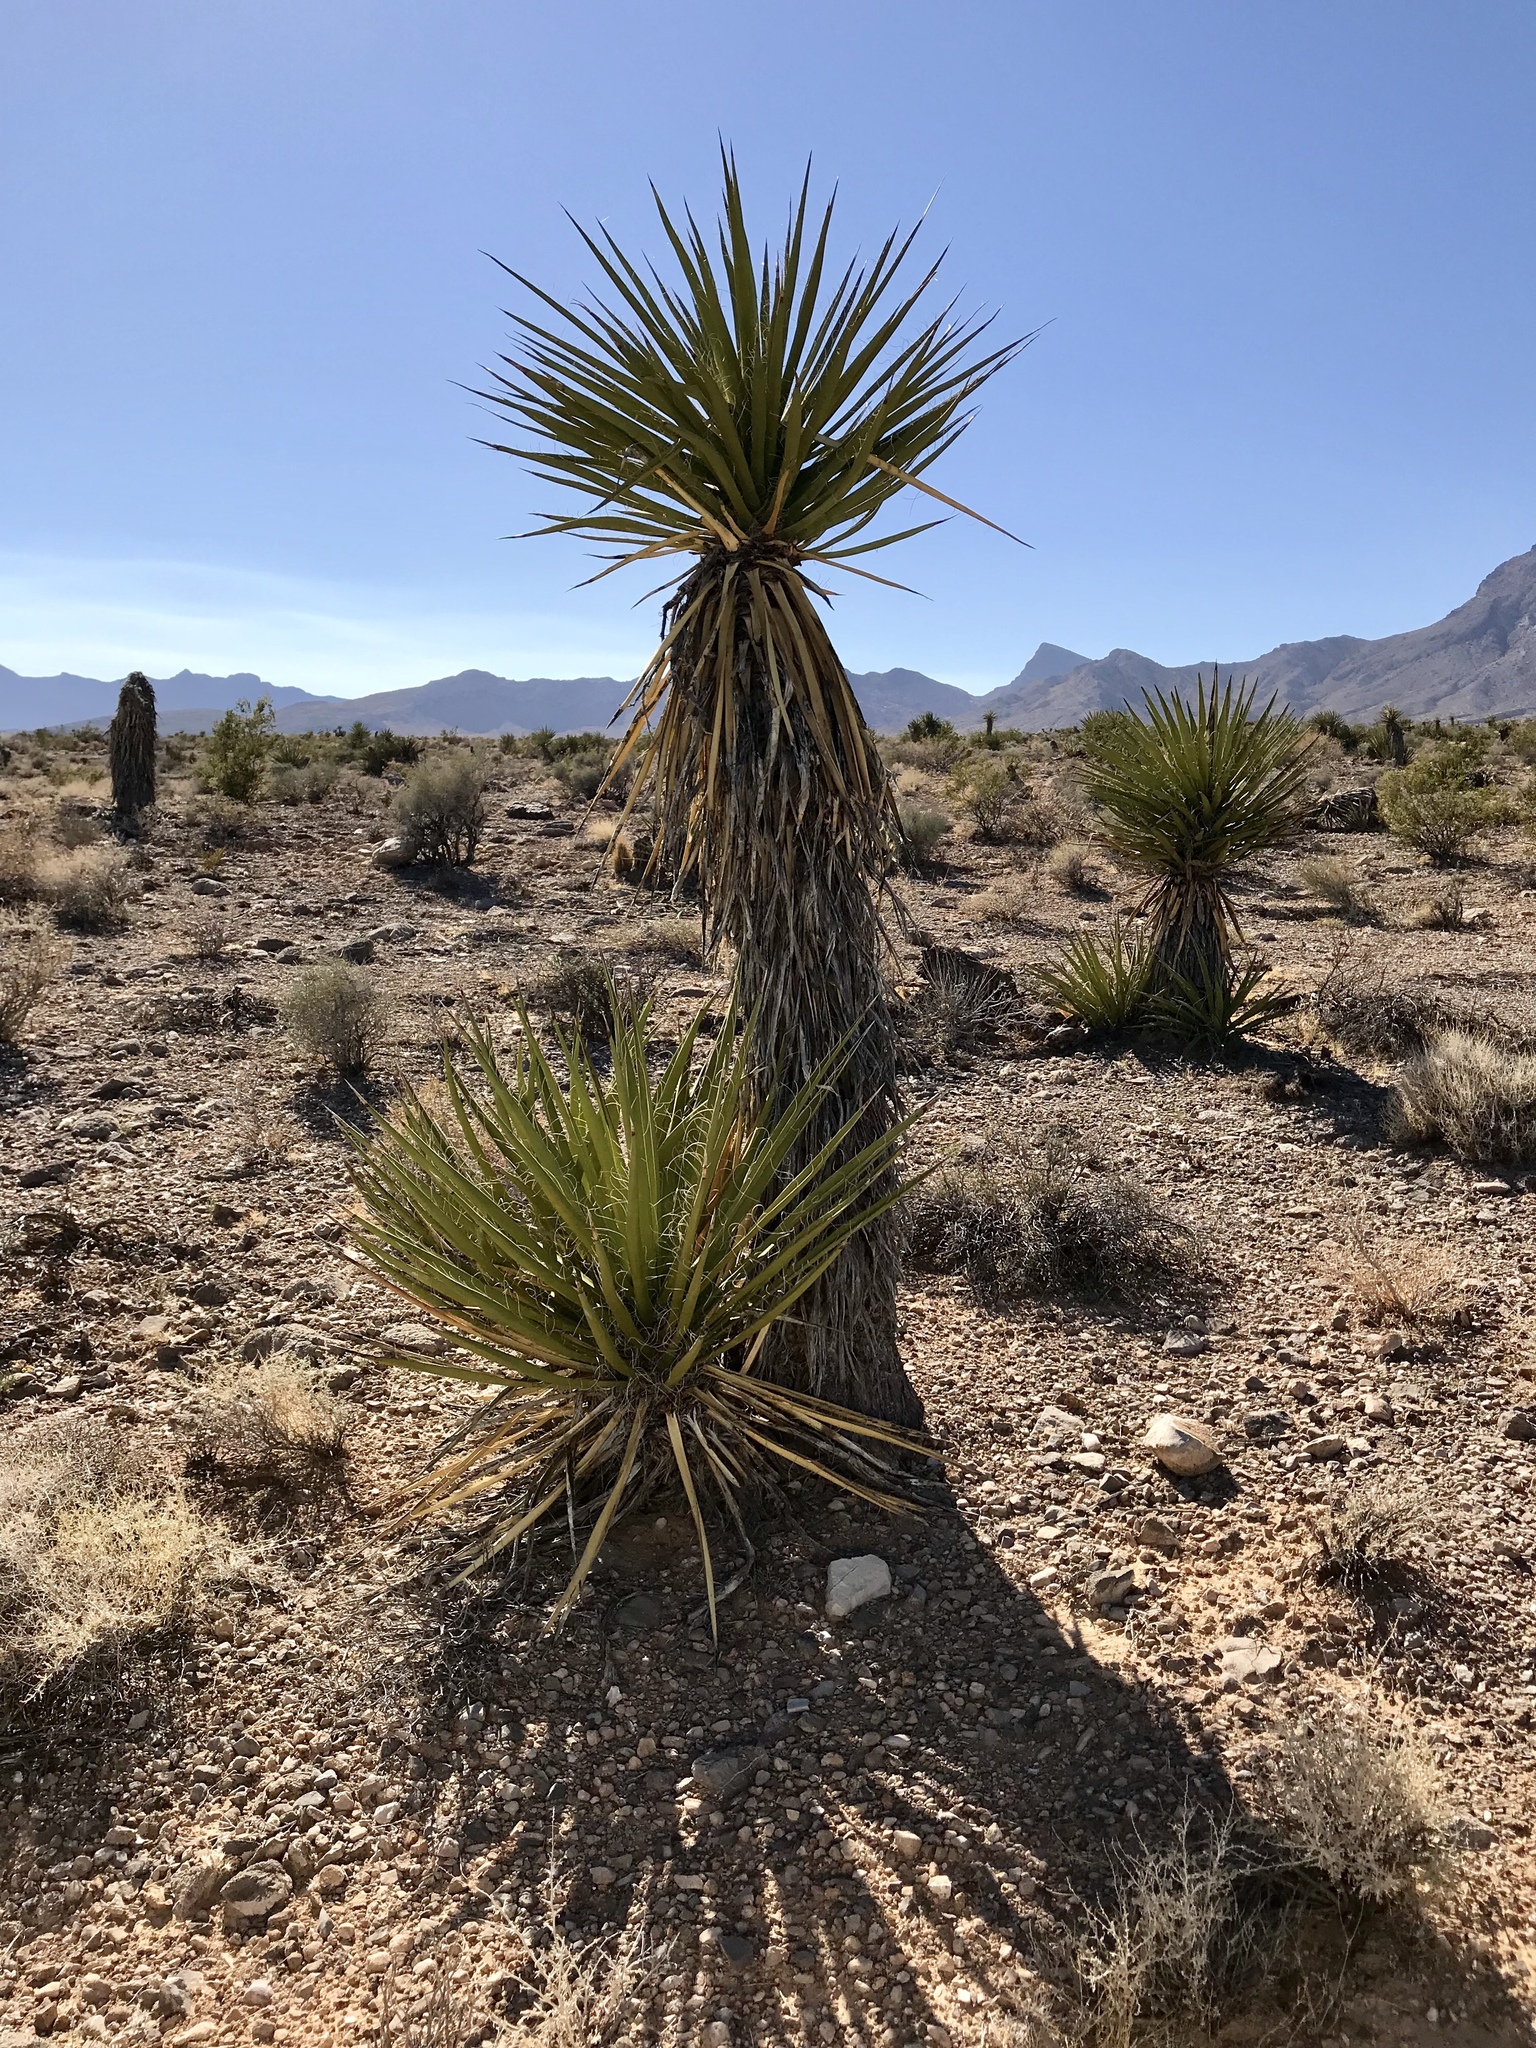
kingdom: Plantae
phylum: Tracheophyta
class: Liliopsida
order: Asparagales
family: Asparagaceae
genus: Yucca
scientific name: Yucca schidigera
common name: Mojave yucca
